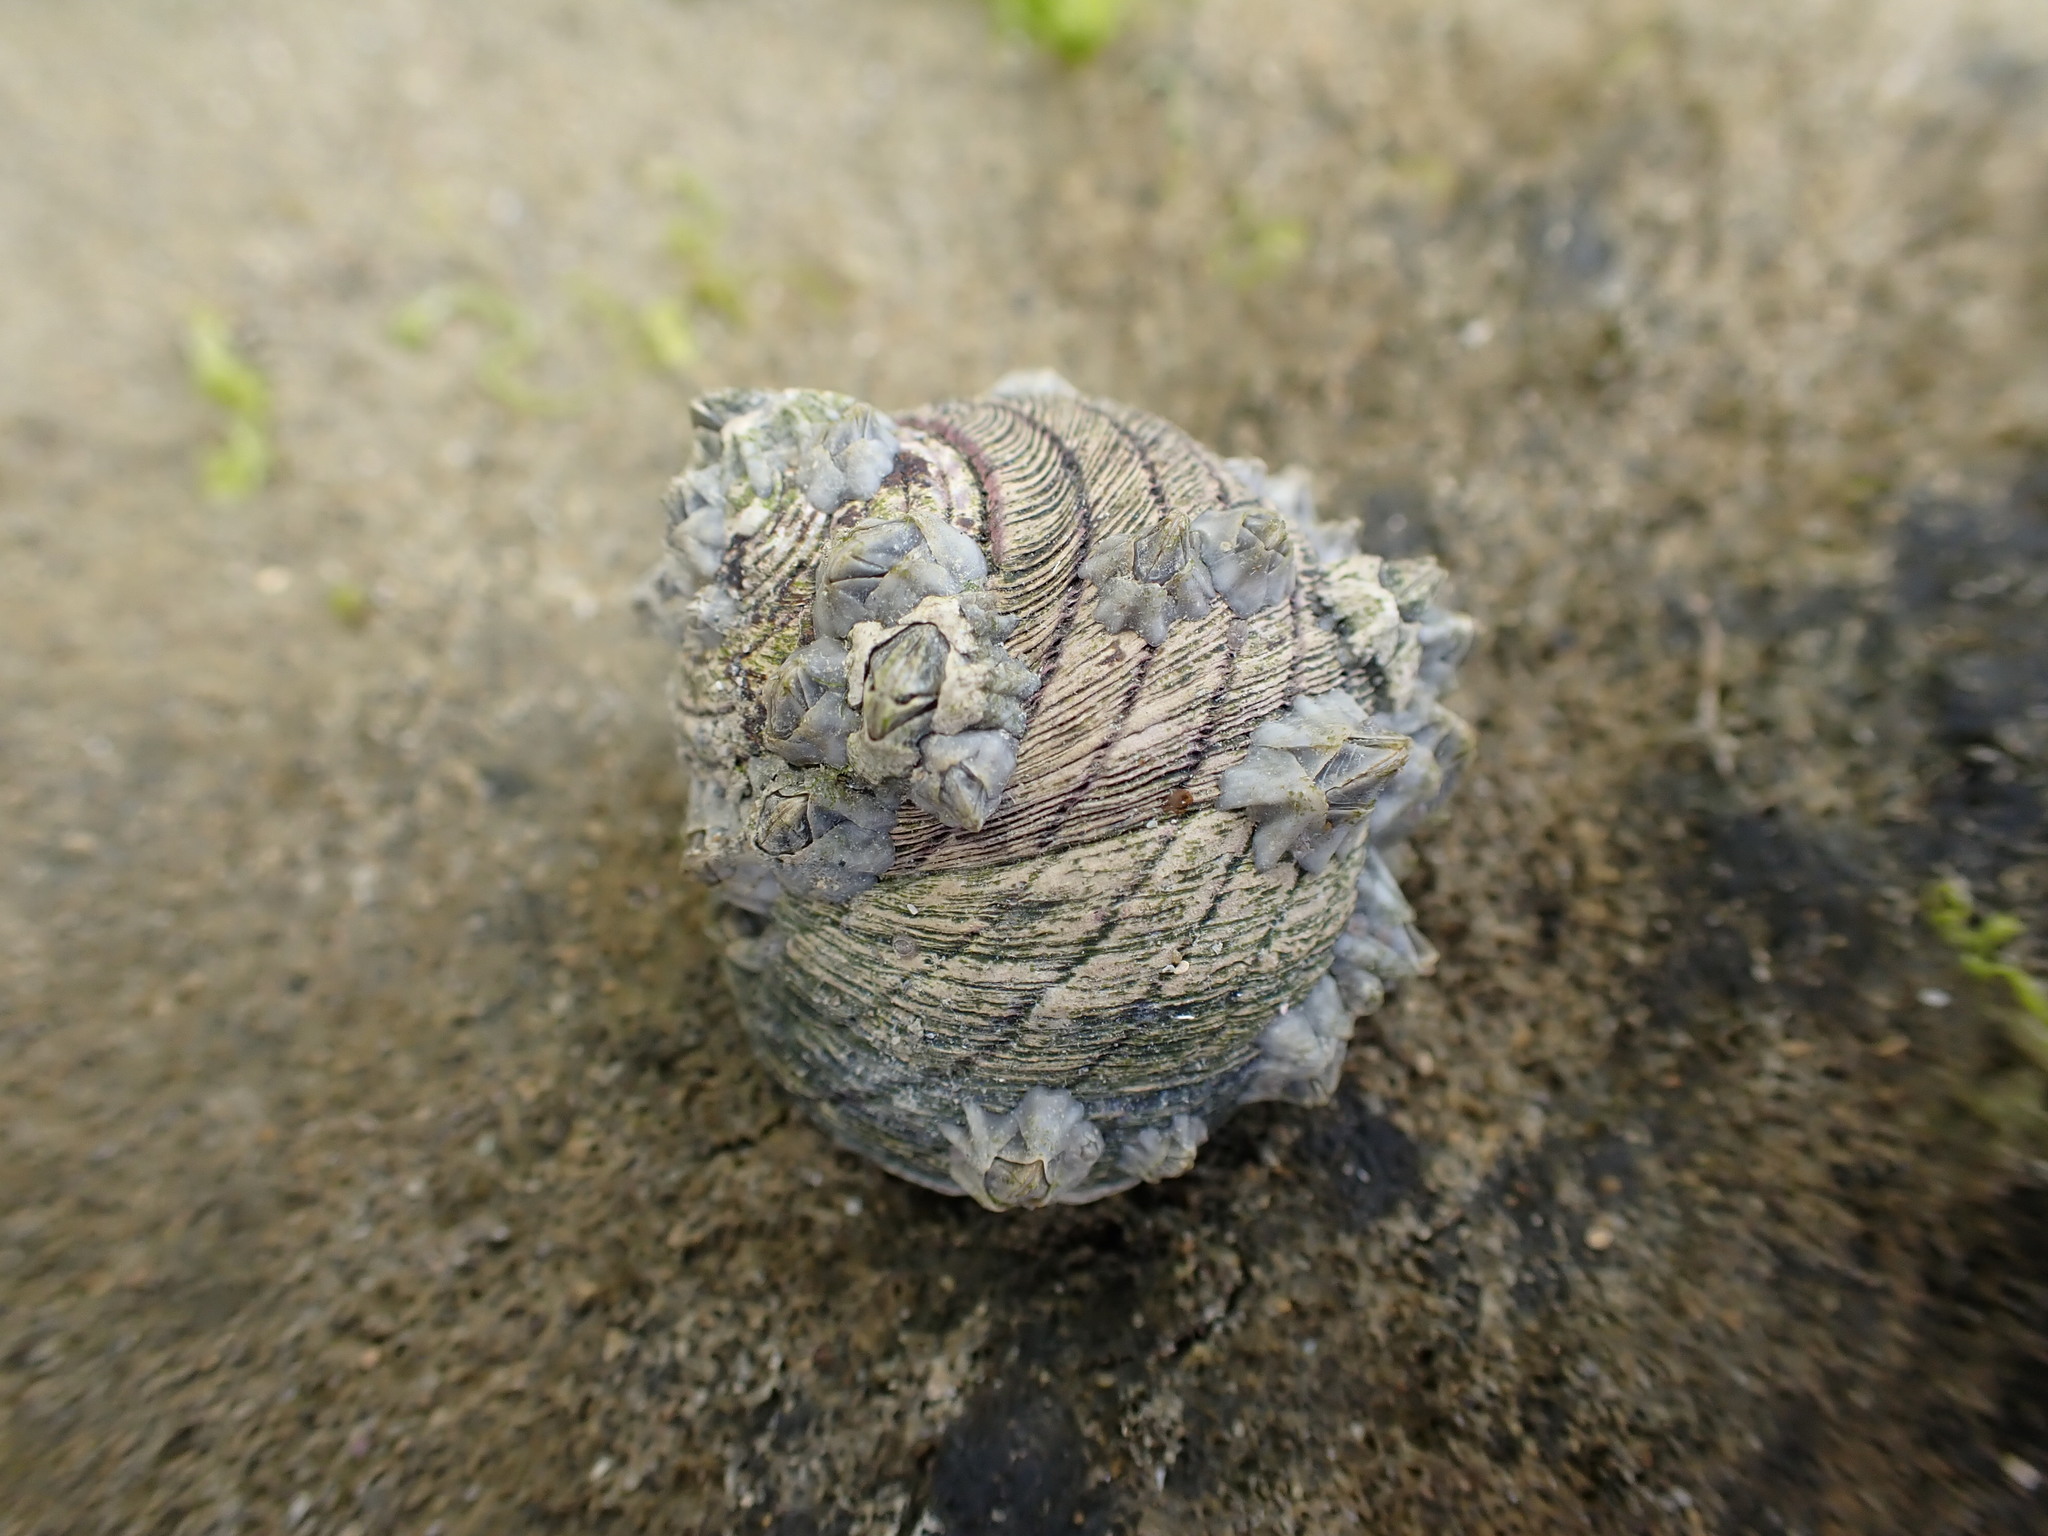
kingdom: Animalia
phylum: Mollusca
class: Gastropoda
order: Trochida
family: Trochidae
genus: Diloma
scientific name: Diloma aethiops
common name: Scorched monodont
